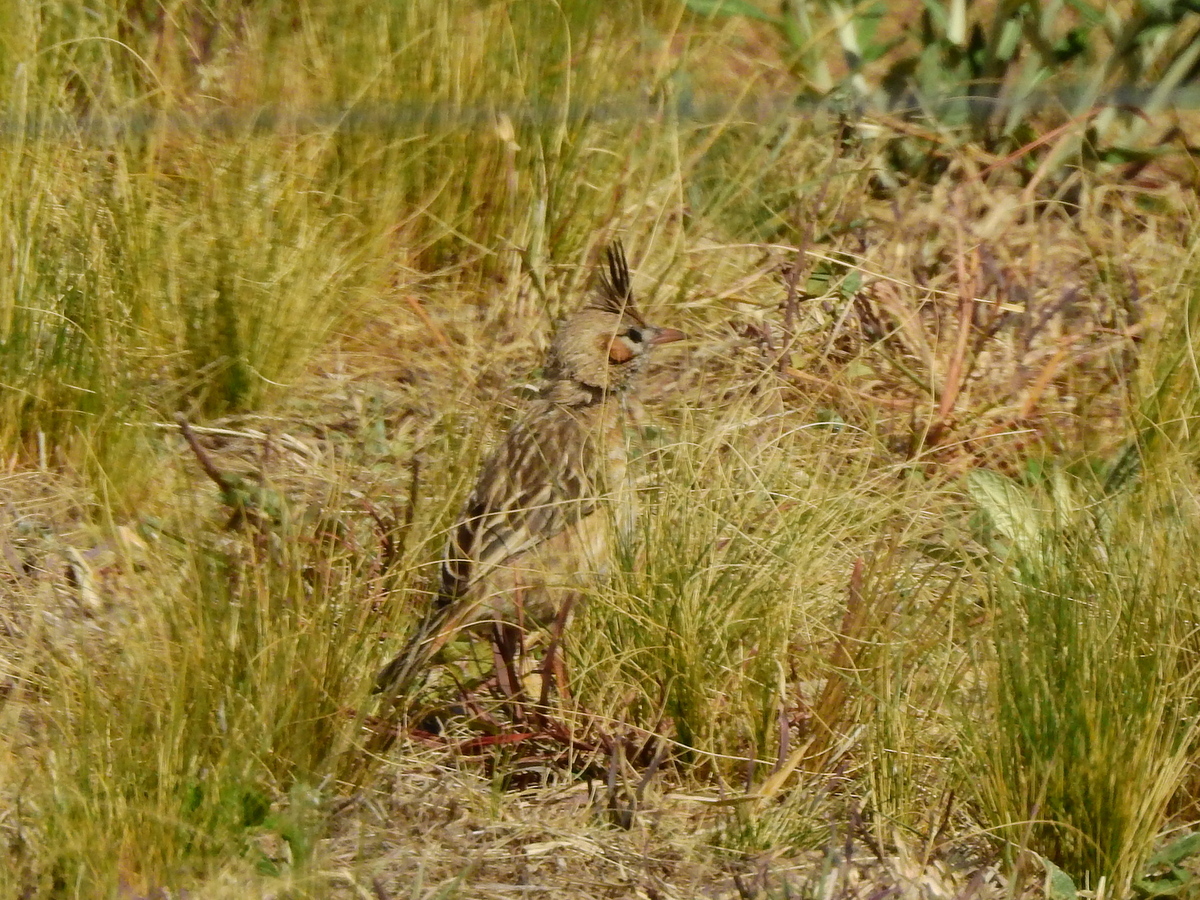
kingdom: Animalia
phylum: Chordata
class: Aves
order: Passeriformes
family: Furnariidae
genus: Coryphistera
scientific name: Coryphistera alaudina
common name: Lark-like brushrunner
